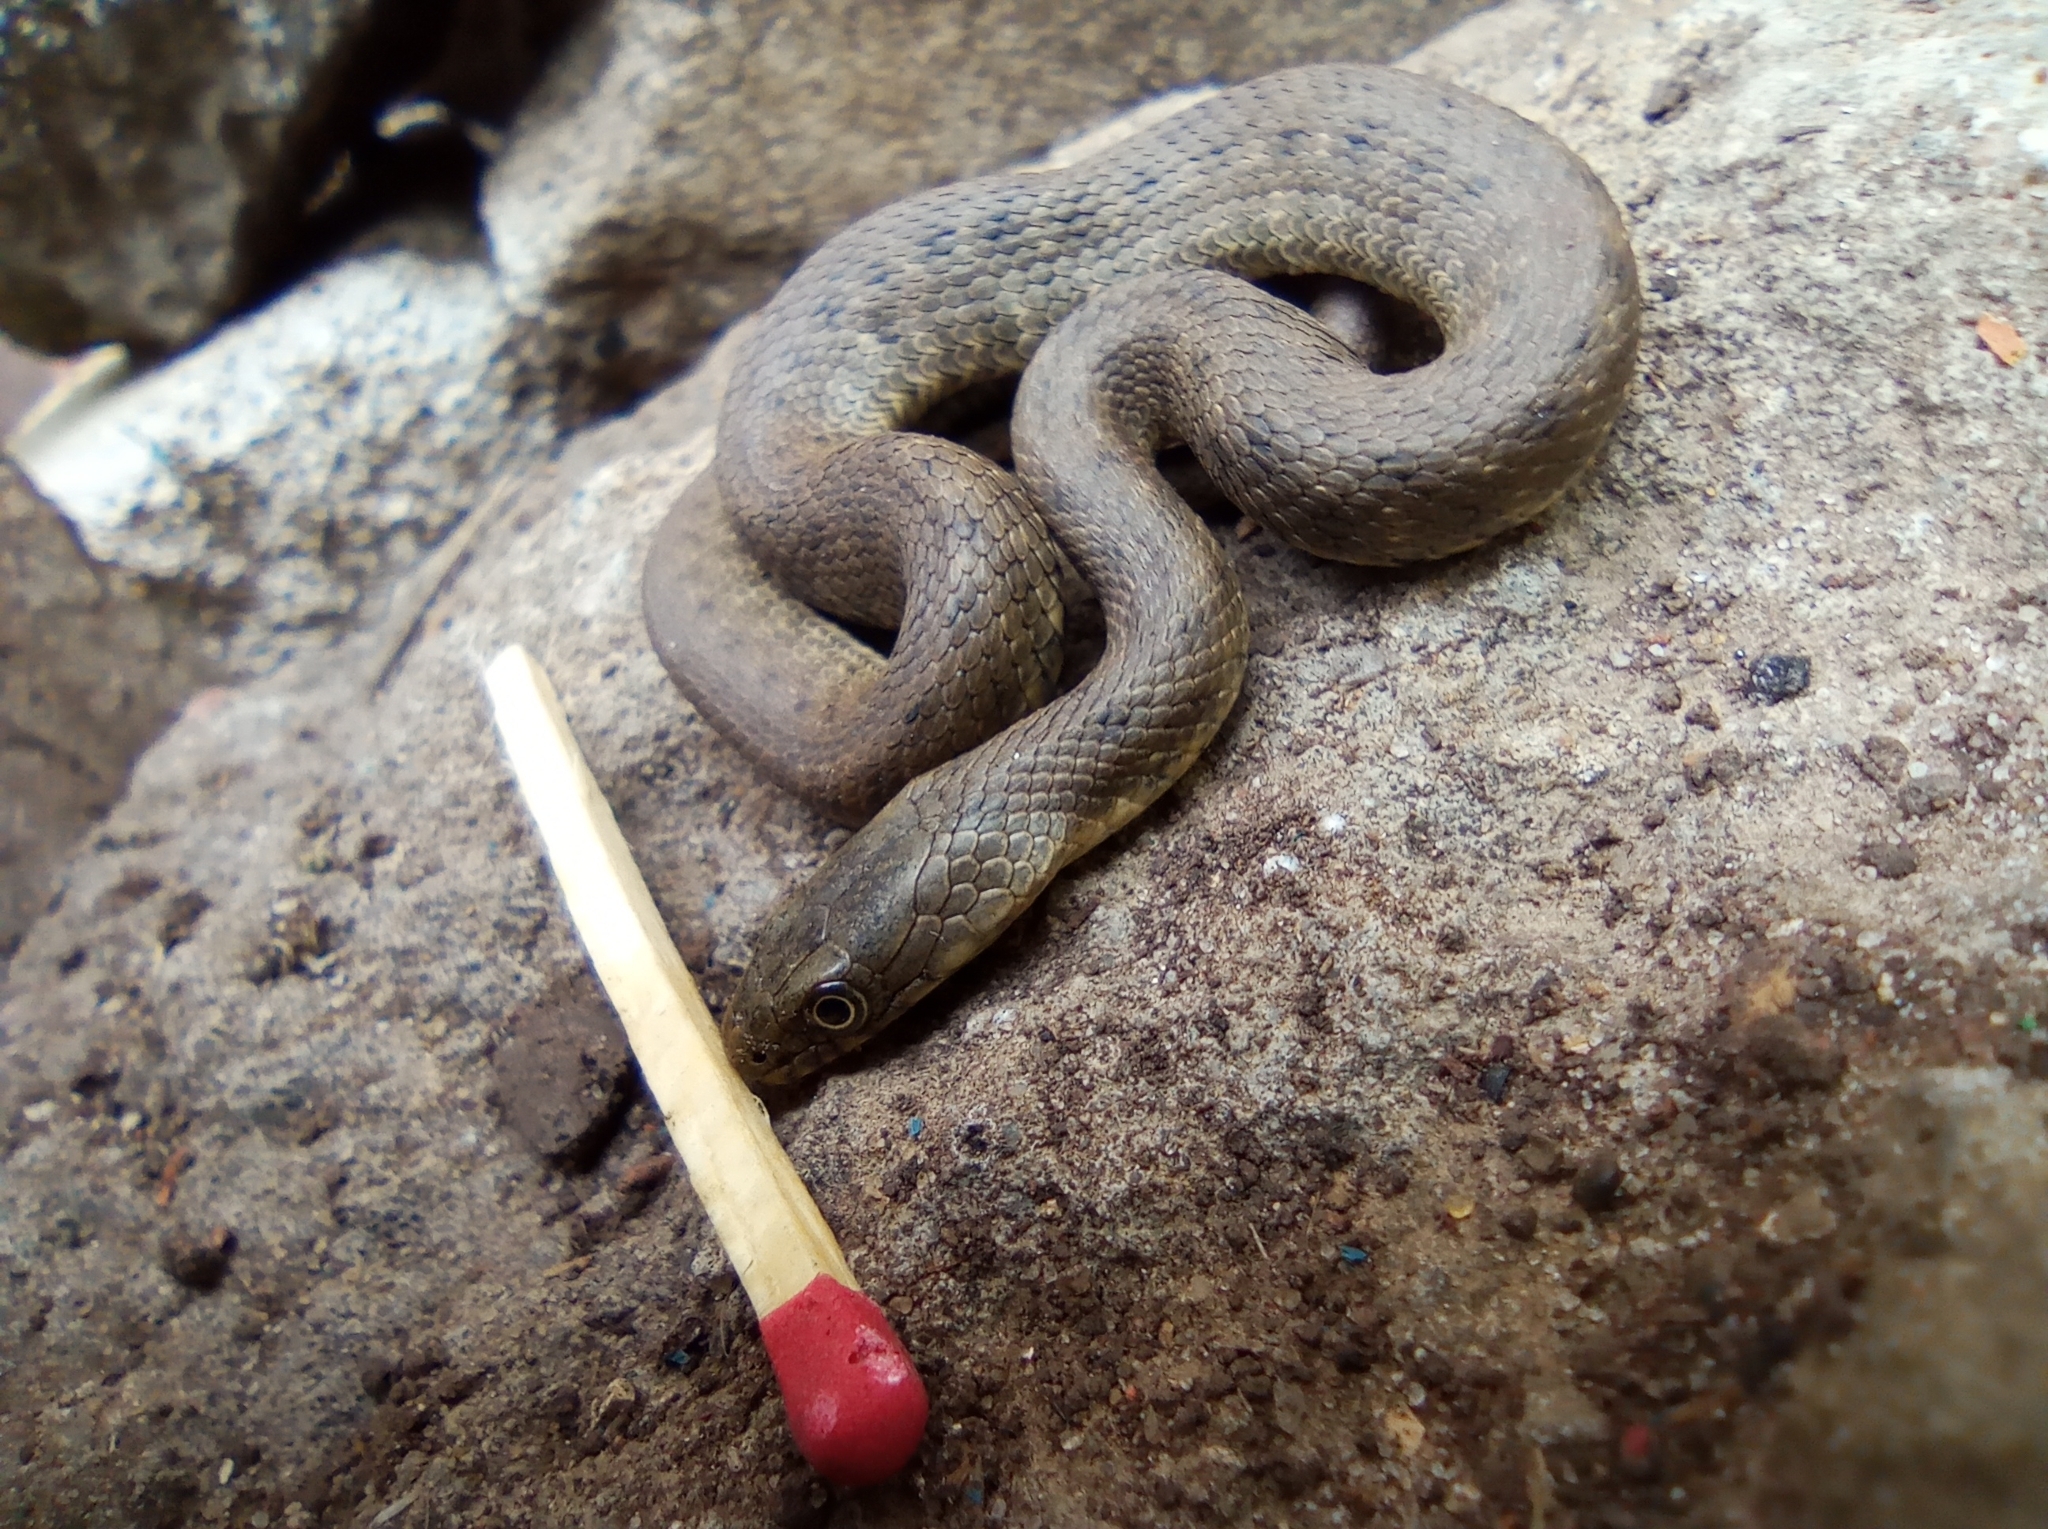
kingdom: Animalia
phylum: Chordata
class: Squamata
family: Colubridae
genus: Natrix
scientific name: Natrix tessellata
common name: Dice snake
